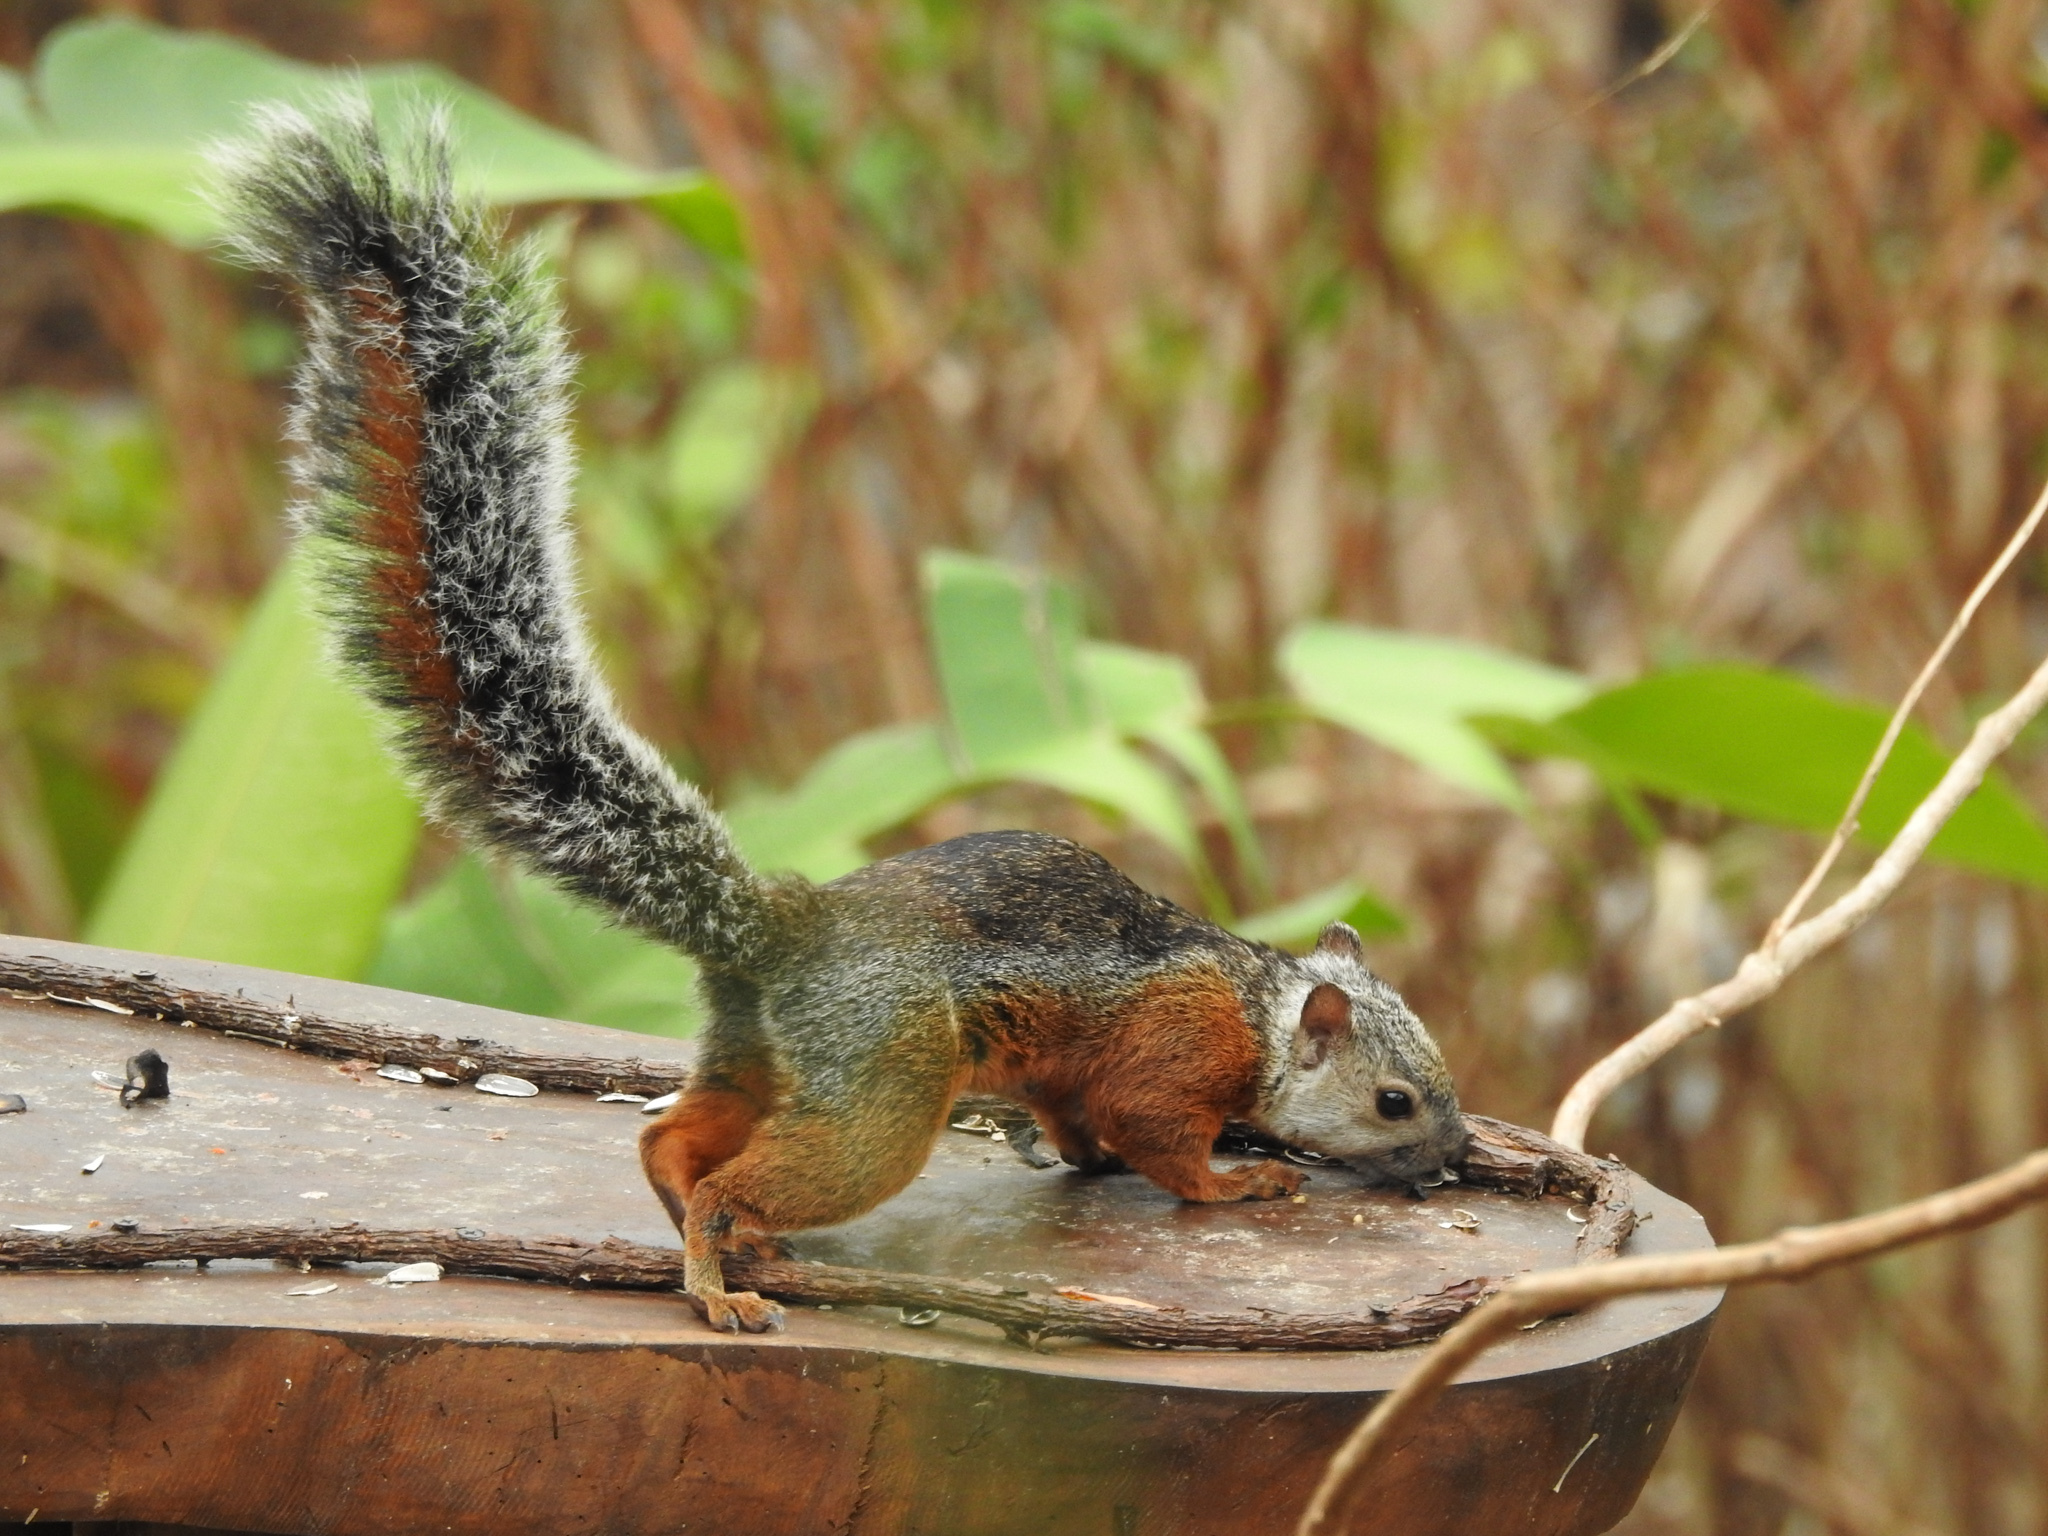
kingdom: Animalia
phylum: Chordata
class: Mammalia
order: Rodentia
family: Sciuridae
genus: Sciurus
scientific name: Sciurus variegatoides
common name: Variegated squirrel
